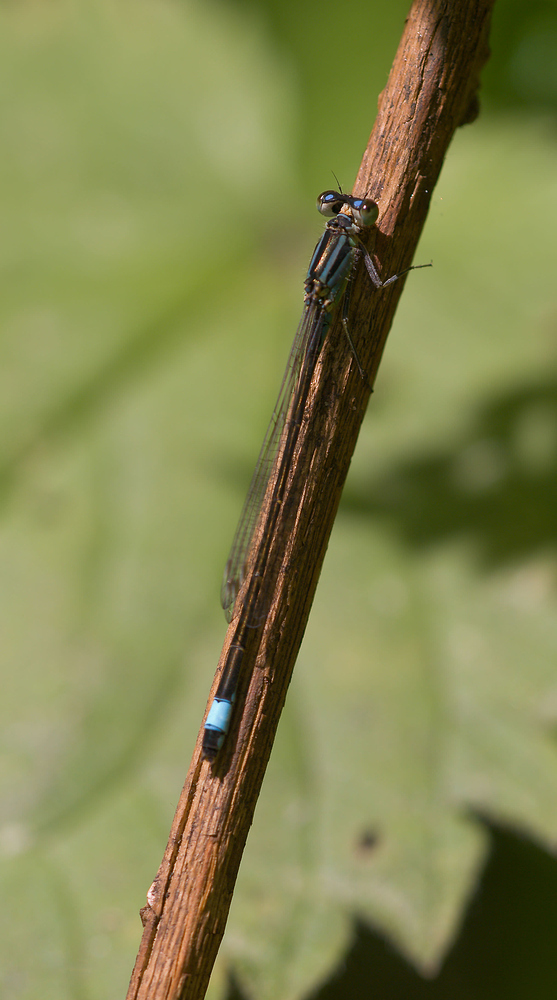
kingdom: Animalia
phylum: Arthropoda
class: Insecta
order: Odonata
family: Coenagrionidae
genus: Ischnura
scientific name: Ischnura elegans
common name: Blue-tailed damselfly
